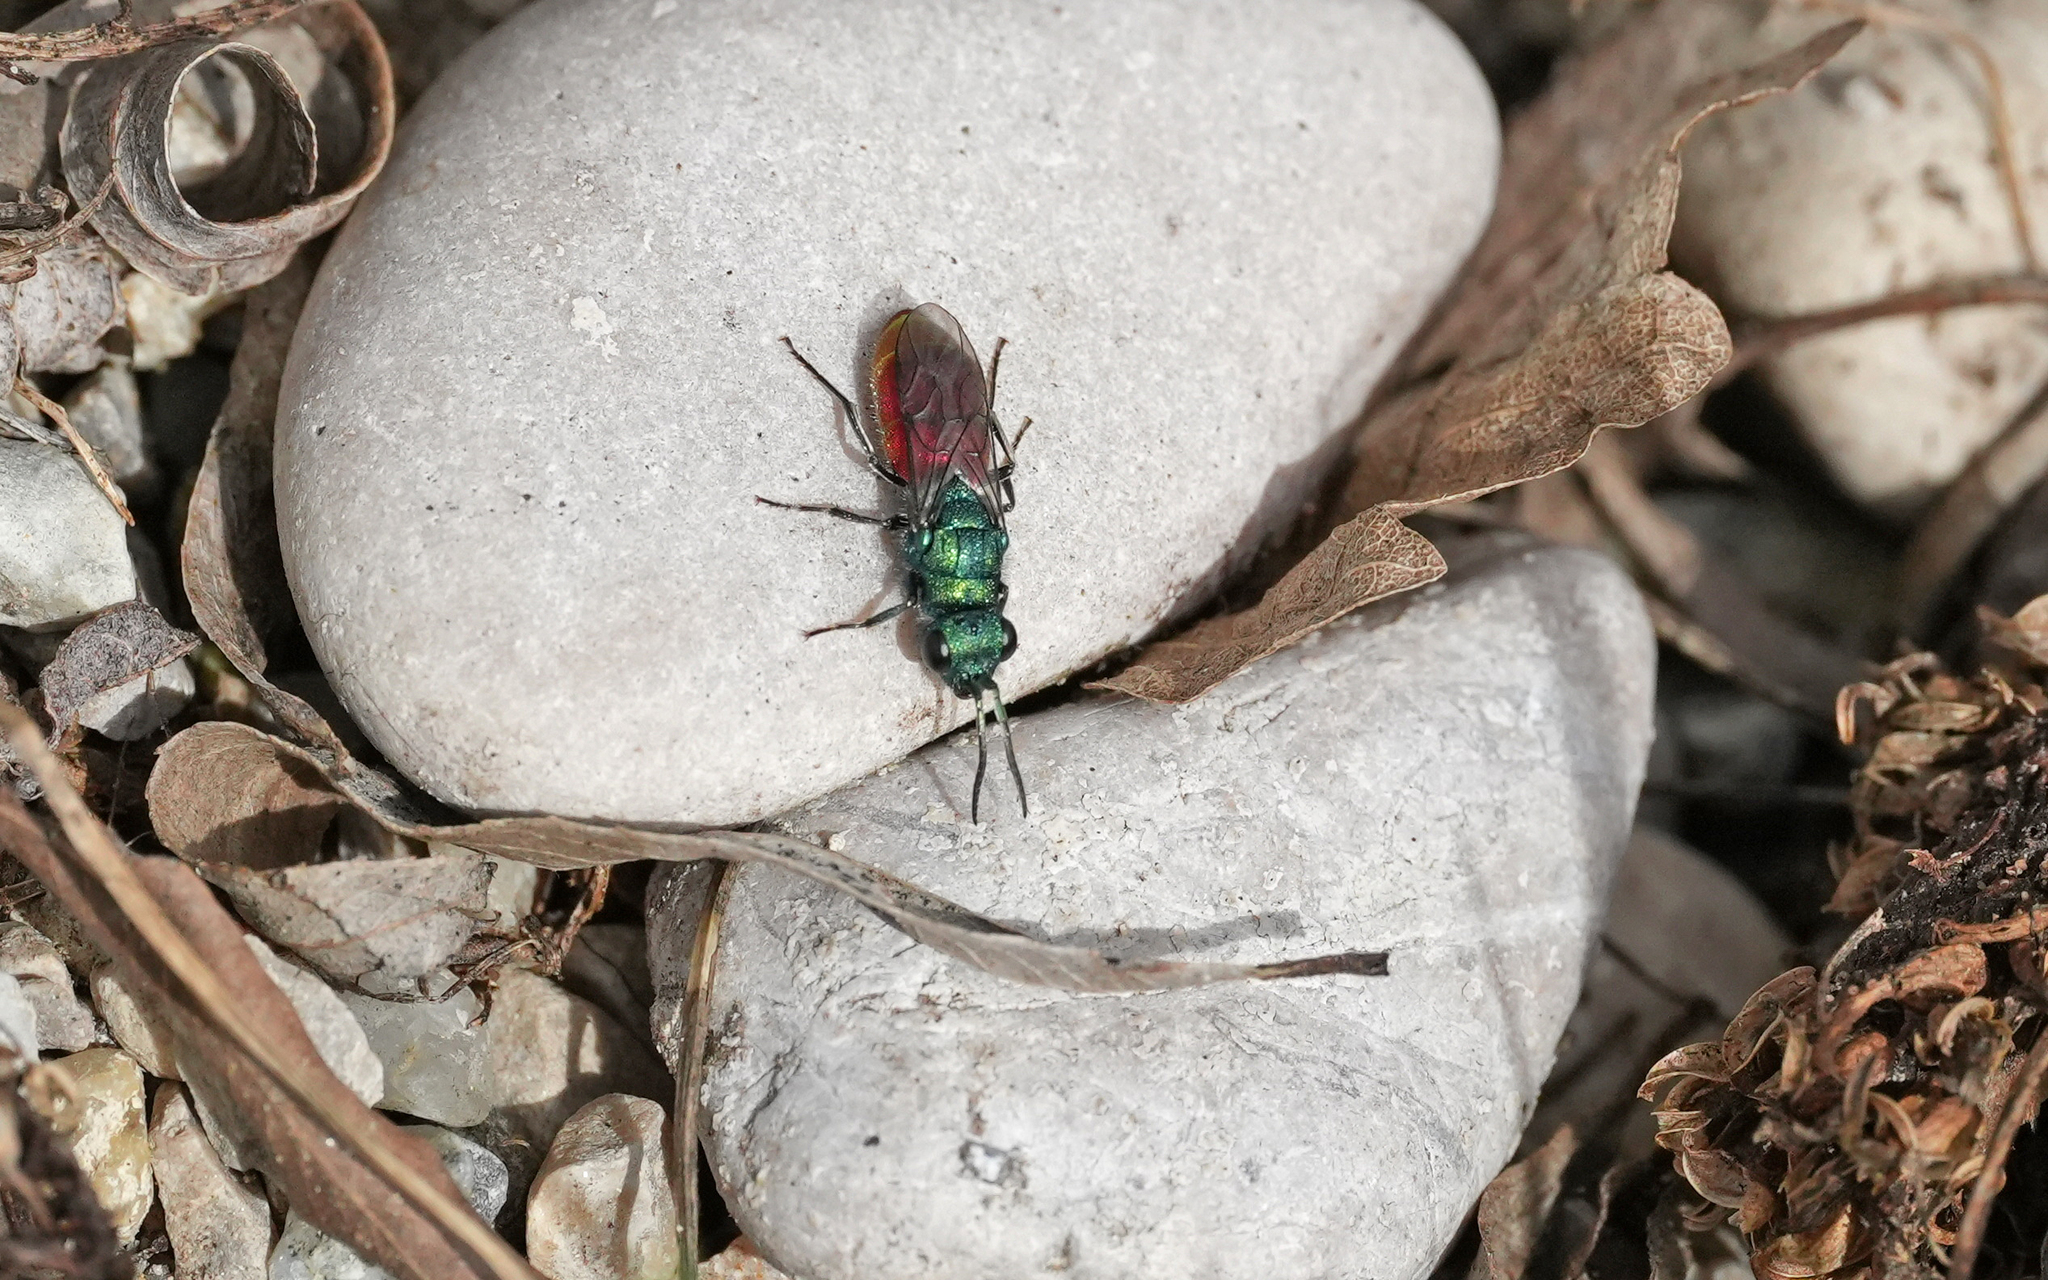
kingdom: Animalia
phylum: Arthropoda
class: Insecta
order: Hymenoptera
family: Chrysididae
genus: Chrysura
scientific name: Chrysura trimaculata
